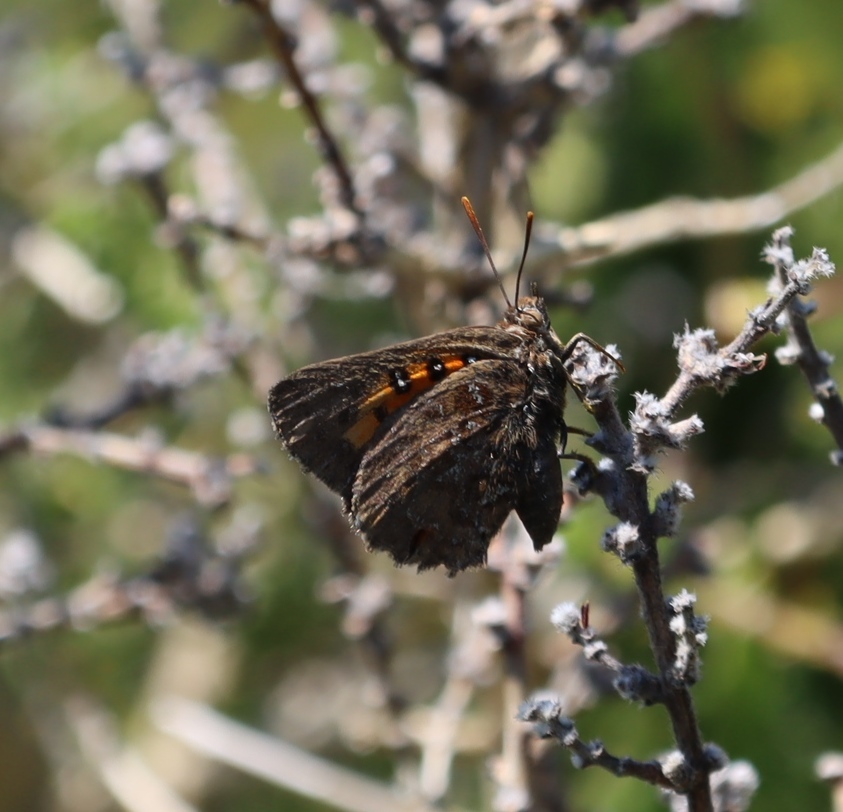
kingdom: Animalia
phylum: Arthropoda
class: Insecta
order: Lepidoptera
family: Lycaenidae
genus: Aloeides
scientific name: Aloeides pallida
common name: Giant copper
